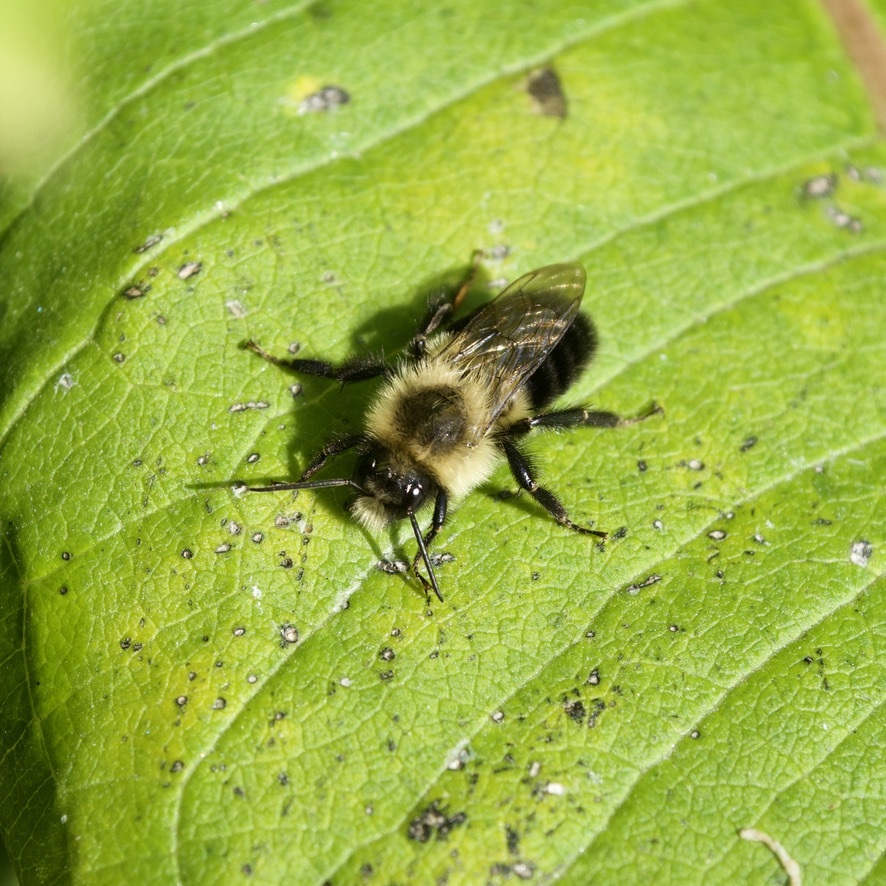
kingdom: Animalia
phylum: Arthropoda
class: Insecta
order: Hymenoptera
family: Apidae
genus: Bombus
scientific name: Bombus impatiens
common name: Common eastern bumble bee
